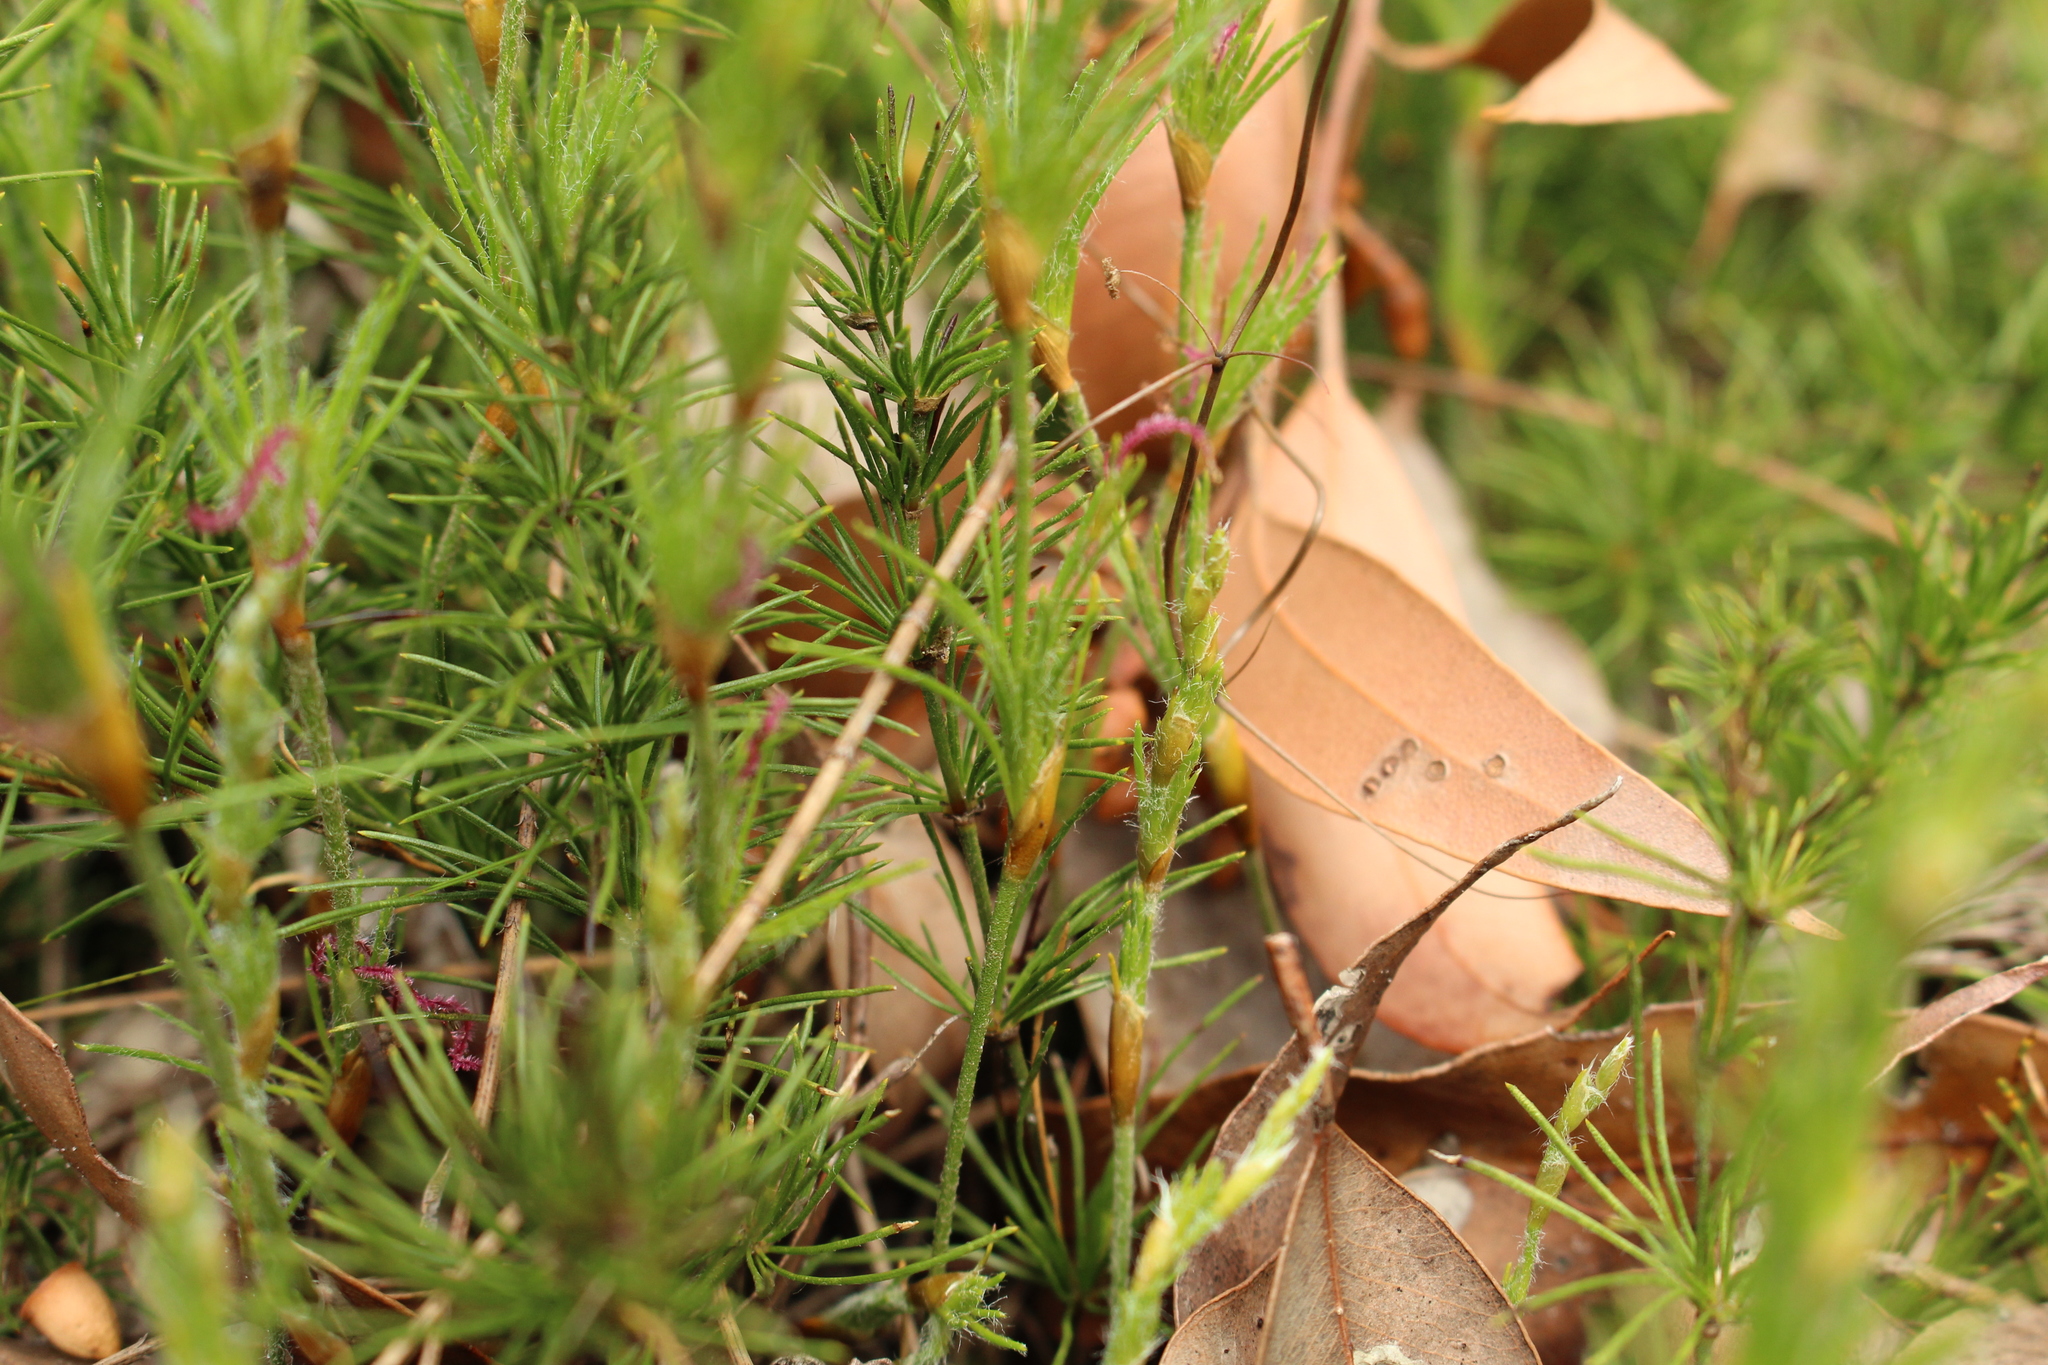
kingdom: Plantae
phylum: Tracheophyta
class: Liliopsida
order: Poales
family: Restionaceae
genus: Desmocladus
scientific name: Desmocladus fasciculatus
